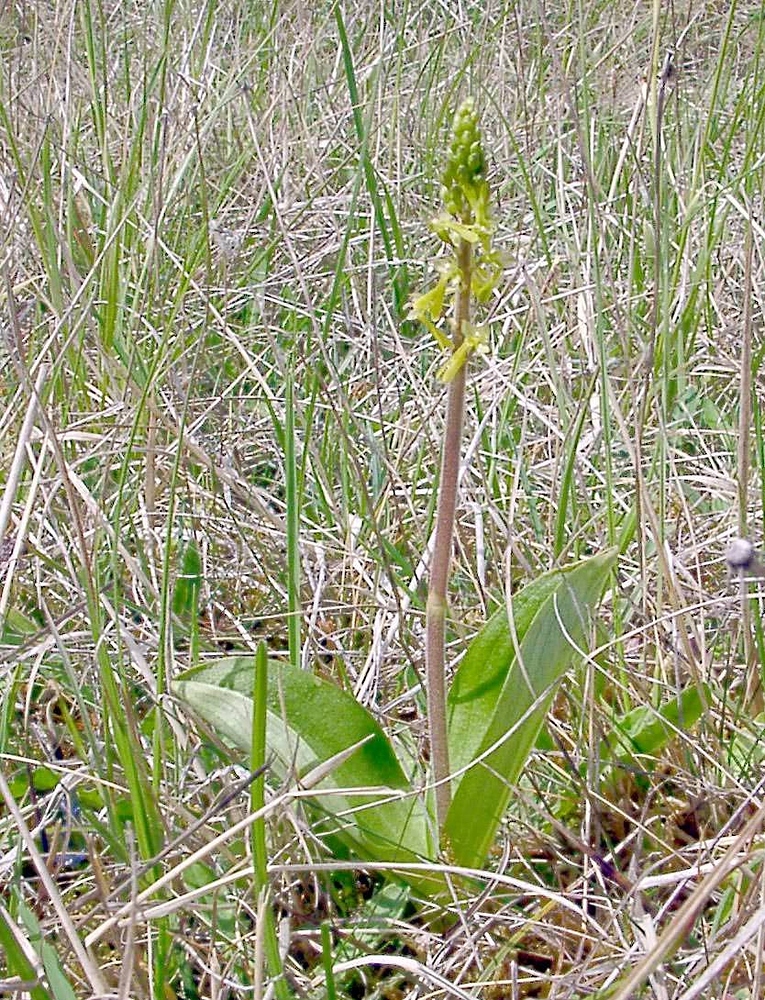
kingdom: Plantae
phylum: Tracheophyta
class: Liliopsida
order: Asparagales
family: Orchidaceae
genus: Neottia
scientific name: Neottia ovata
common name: Common twayblade
